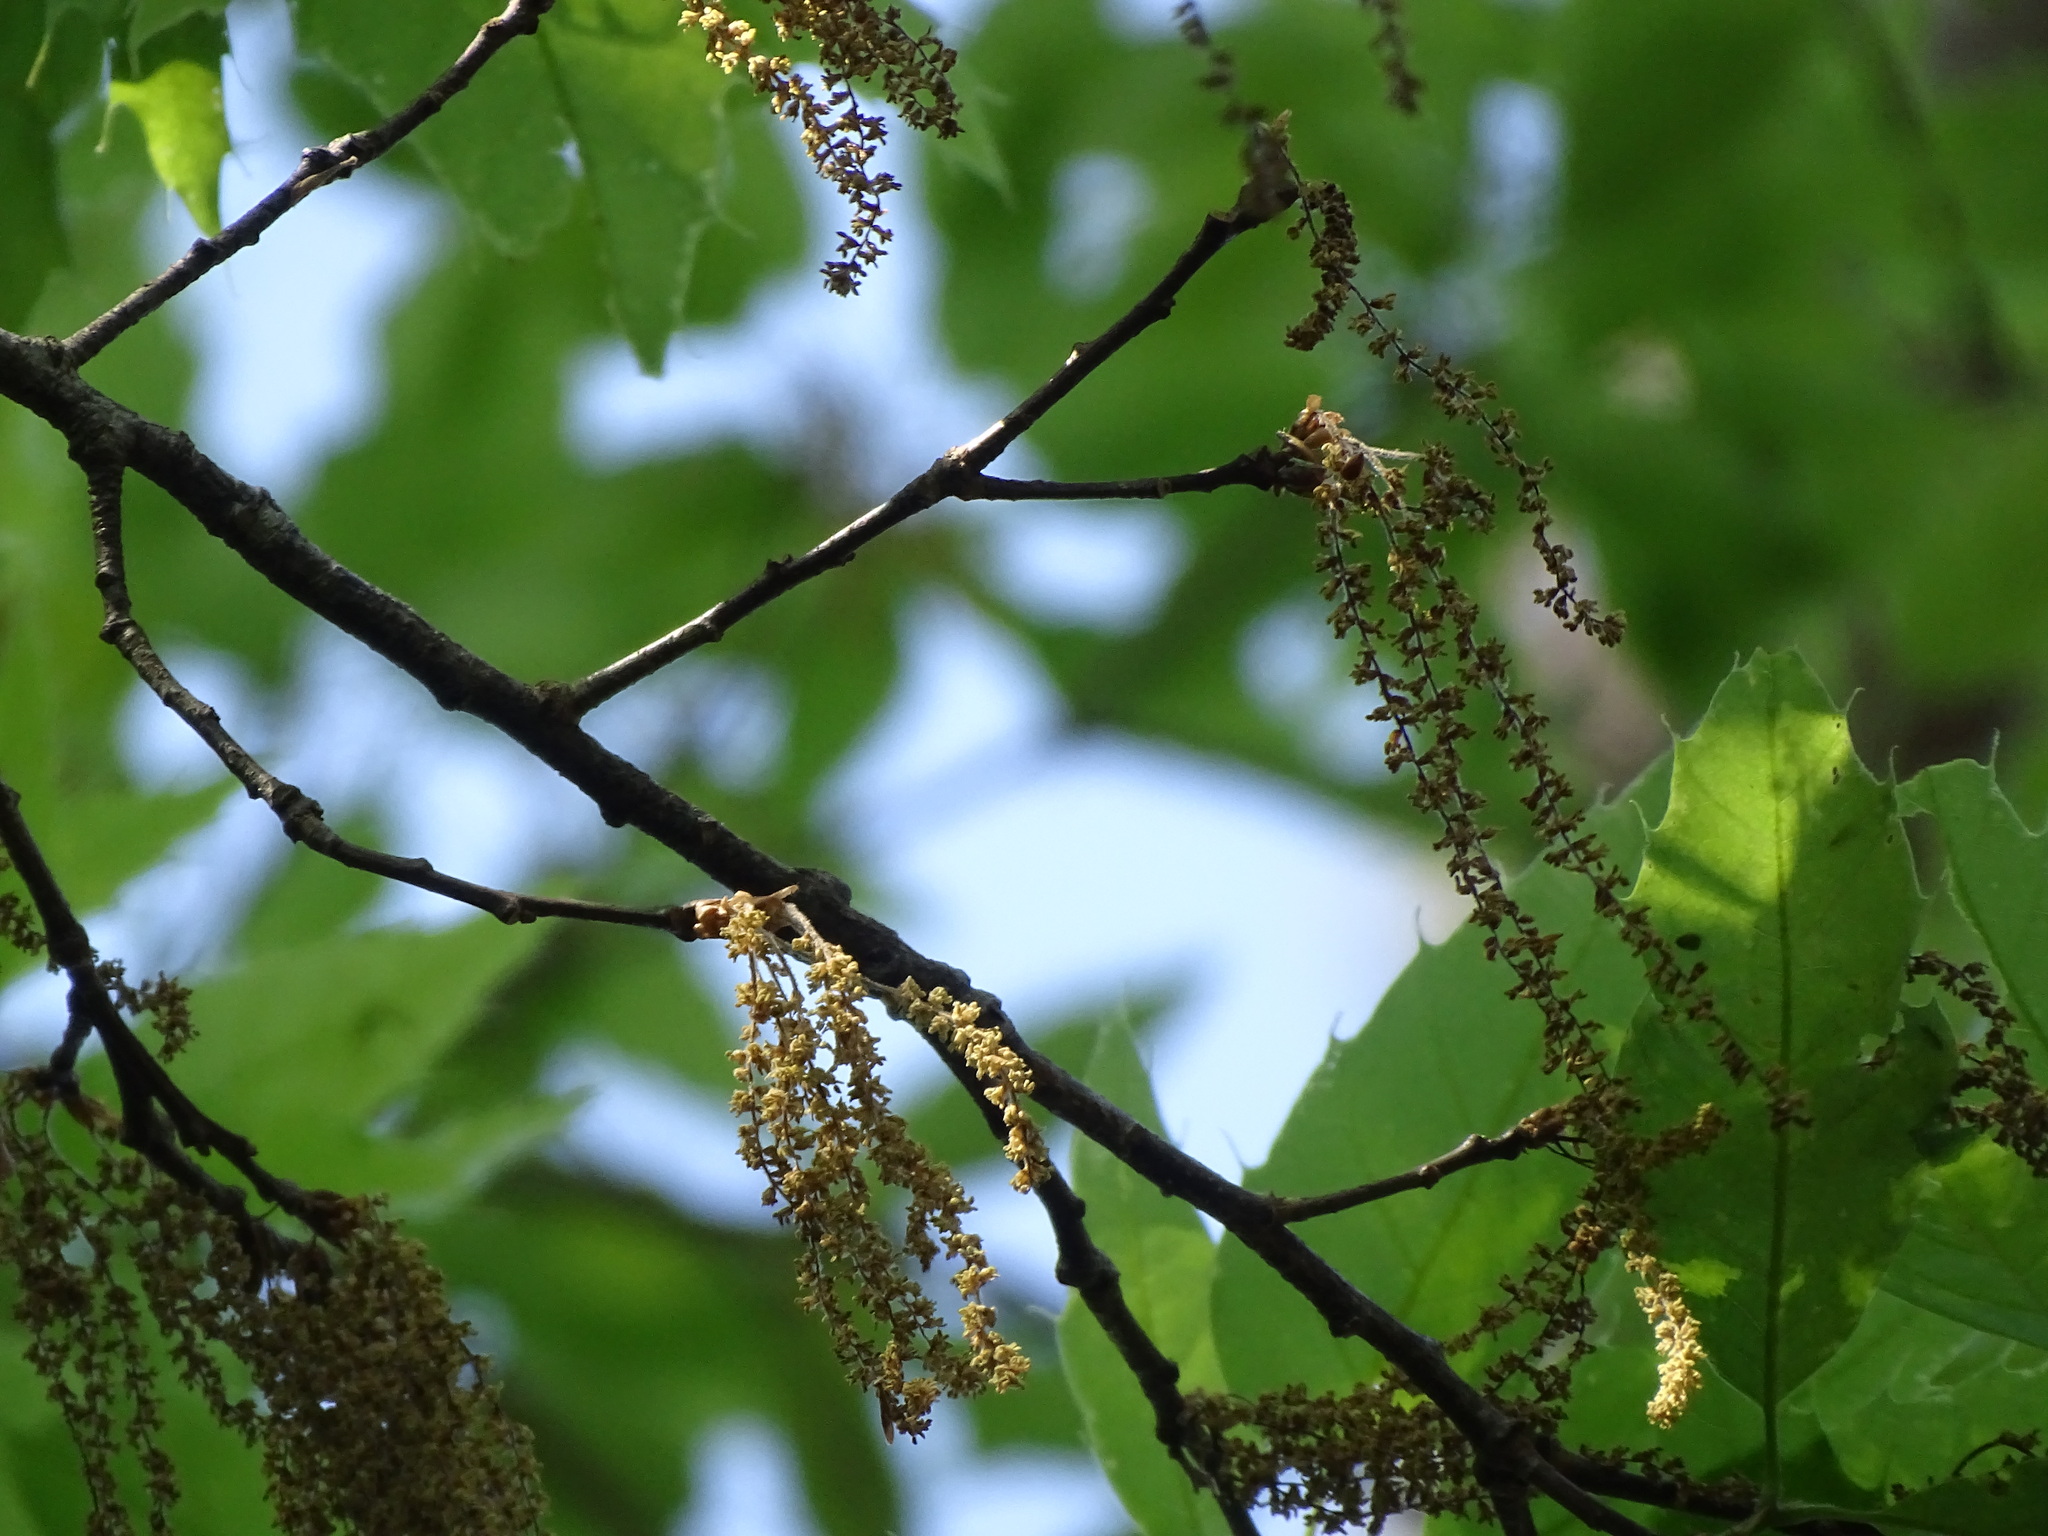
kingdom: Plantae
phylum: Tracheophyta
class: Magnoliopsida
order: Fagales
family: Fagaceae
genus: Quercus
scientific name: Quercus paxtalensis
